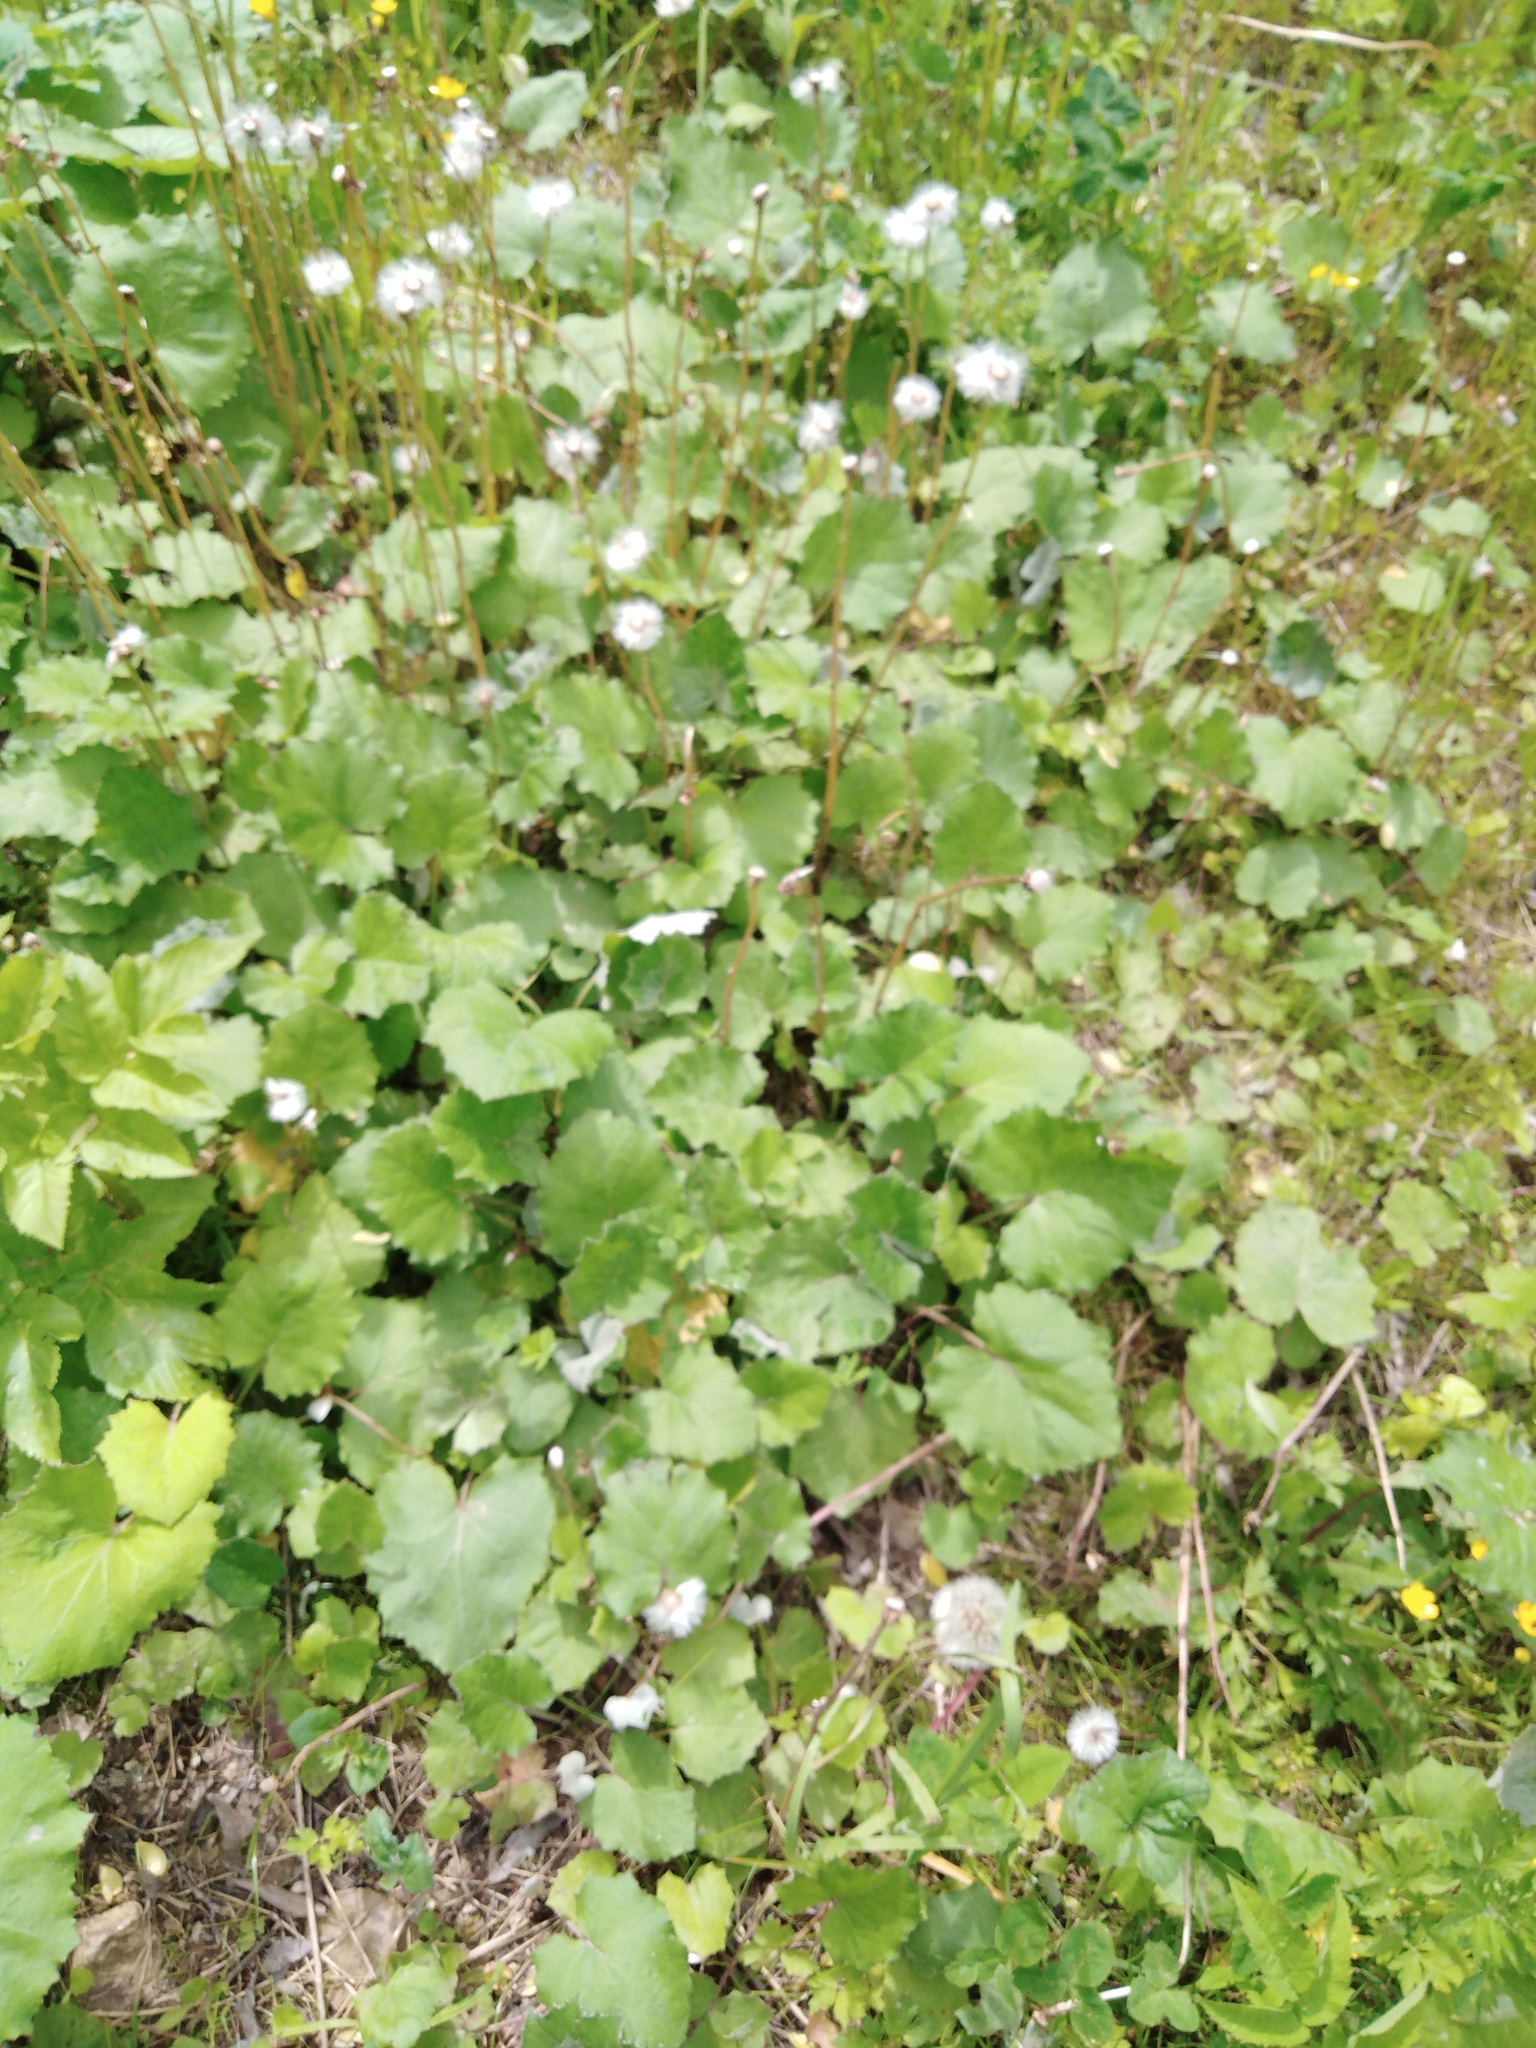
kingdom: Plantae
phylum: Tracheophyta
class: Magnoliopsida
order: Asterales
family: Asteraceae
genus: Tussilago
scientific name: Tussilago farfara
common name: Coltsfoot
